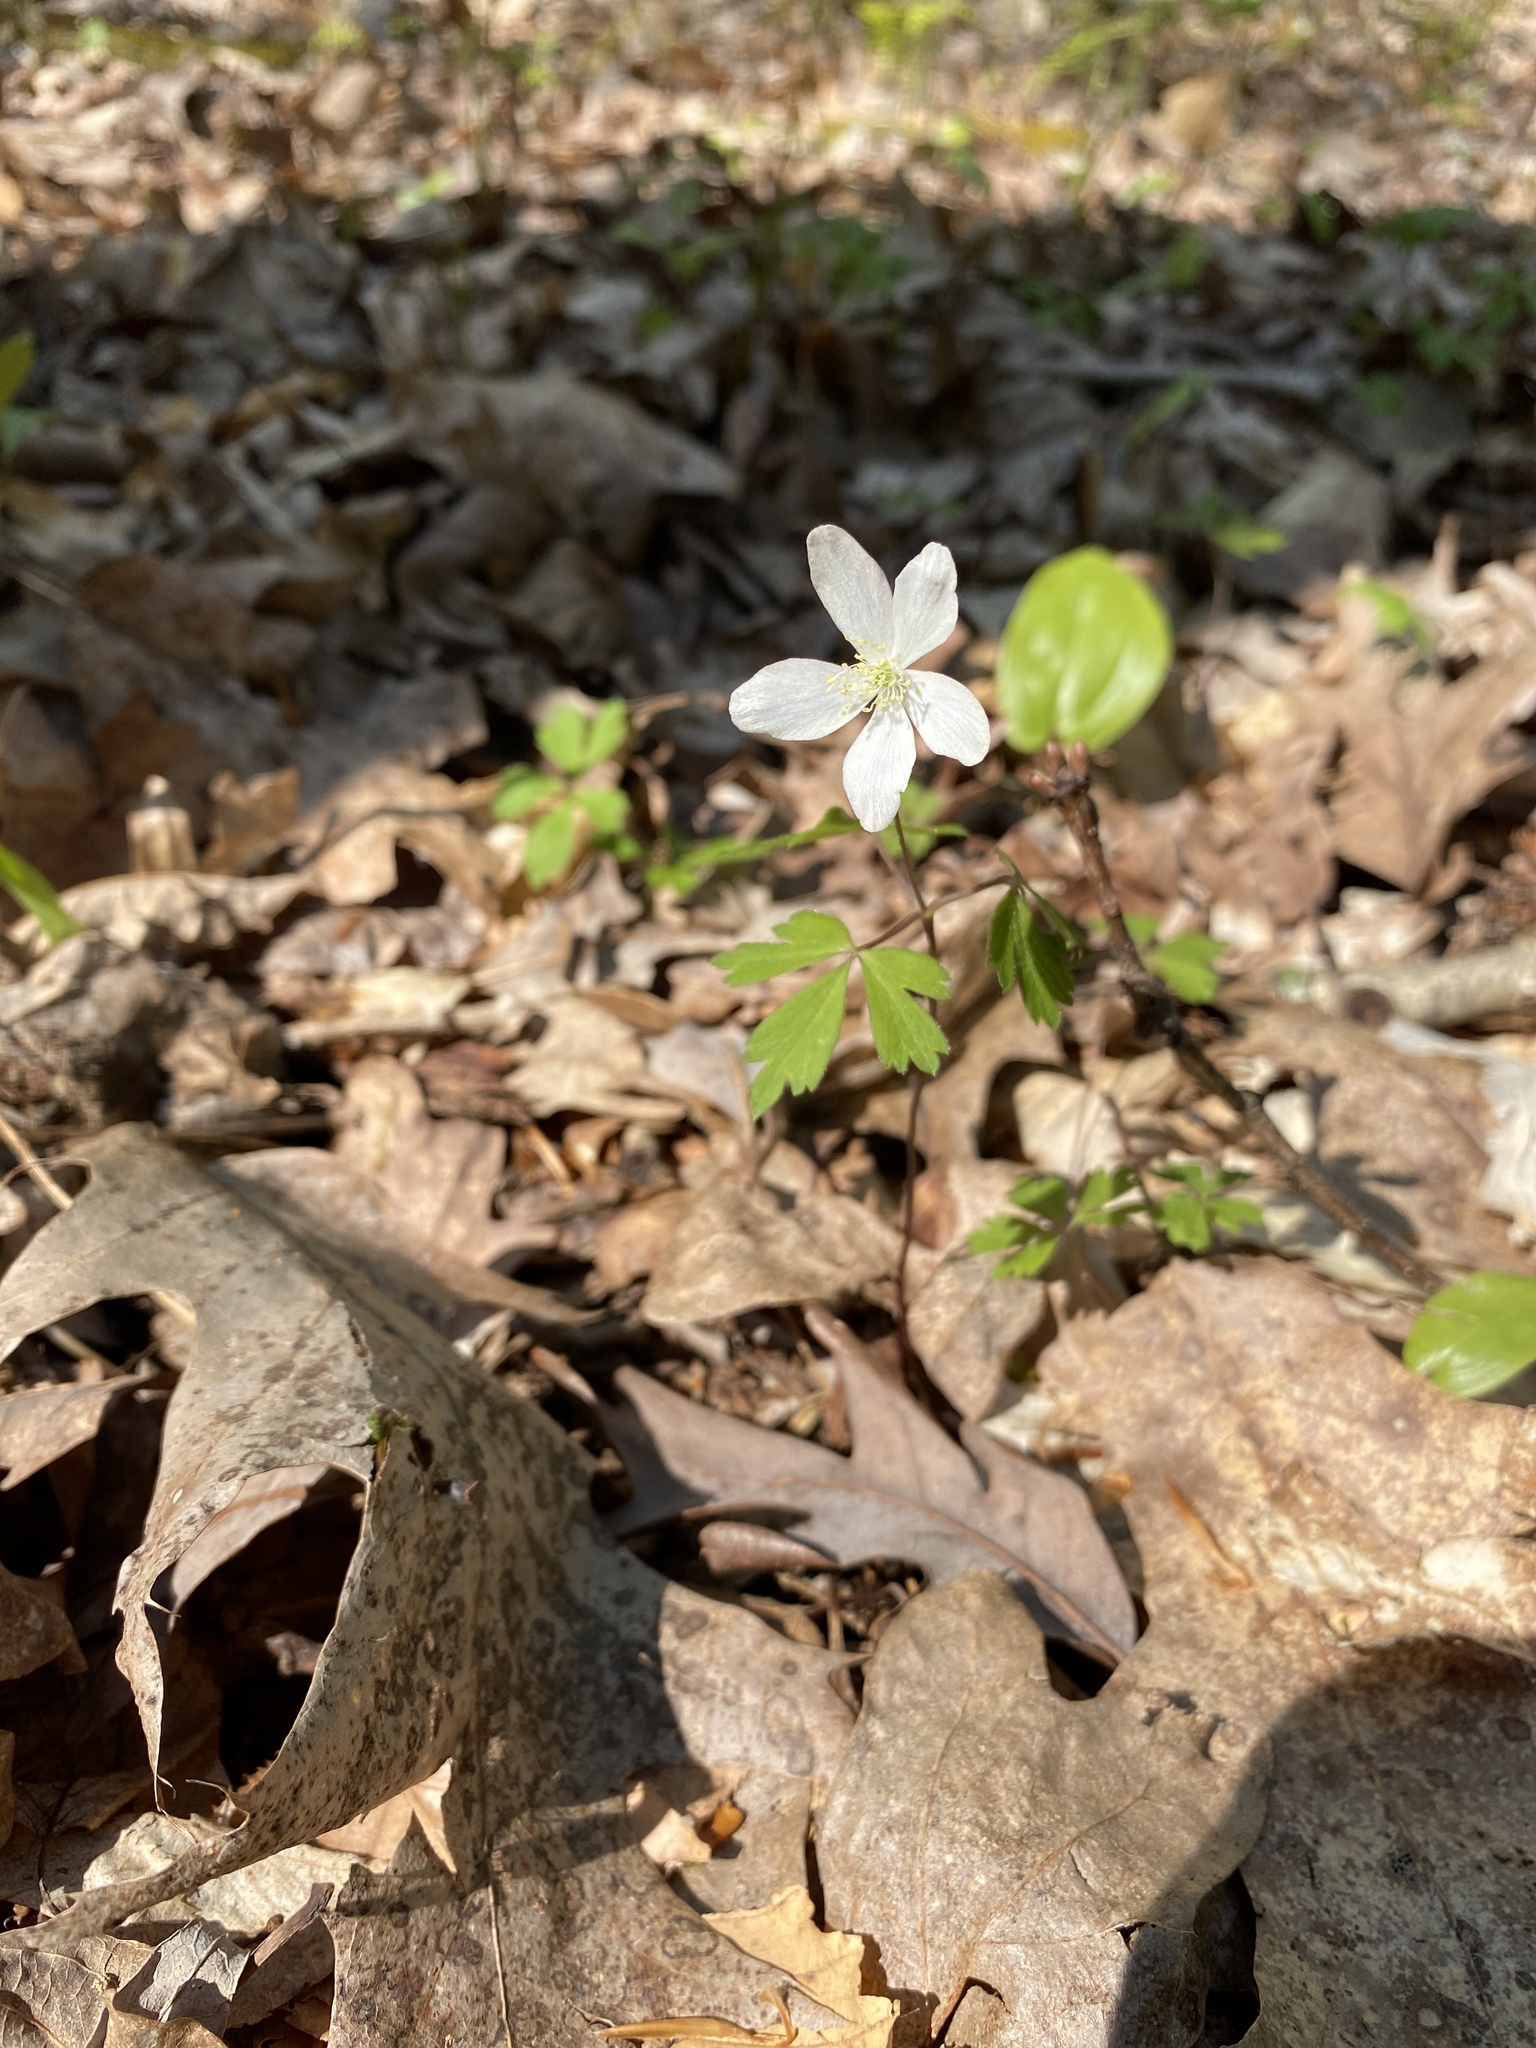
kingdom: Plantae
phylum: Tracheophyta
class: Magnoliopsida
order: Ranunculales
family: Ranunculaceae
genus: Anemone
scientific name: Anemone quinquefolia
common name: Wood anemone
